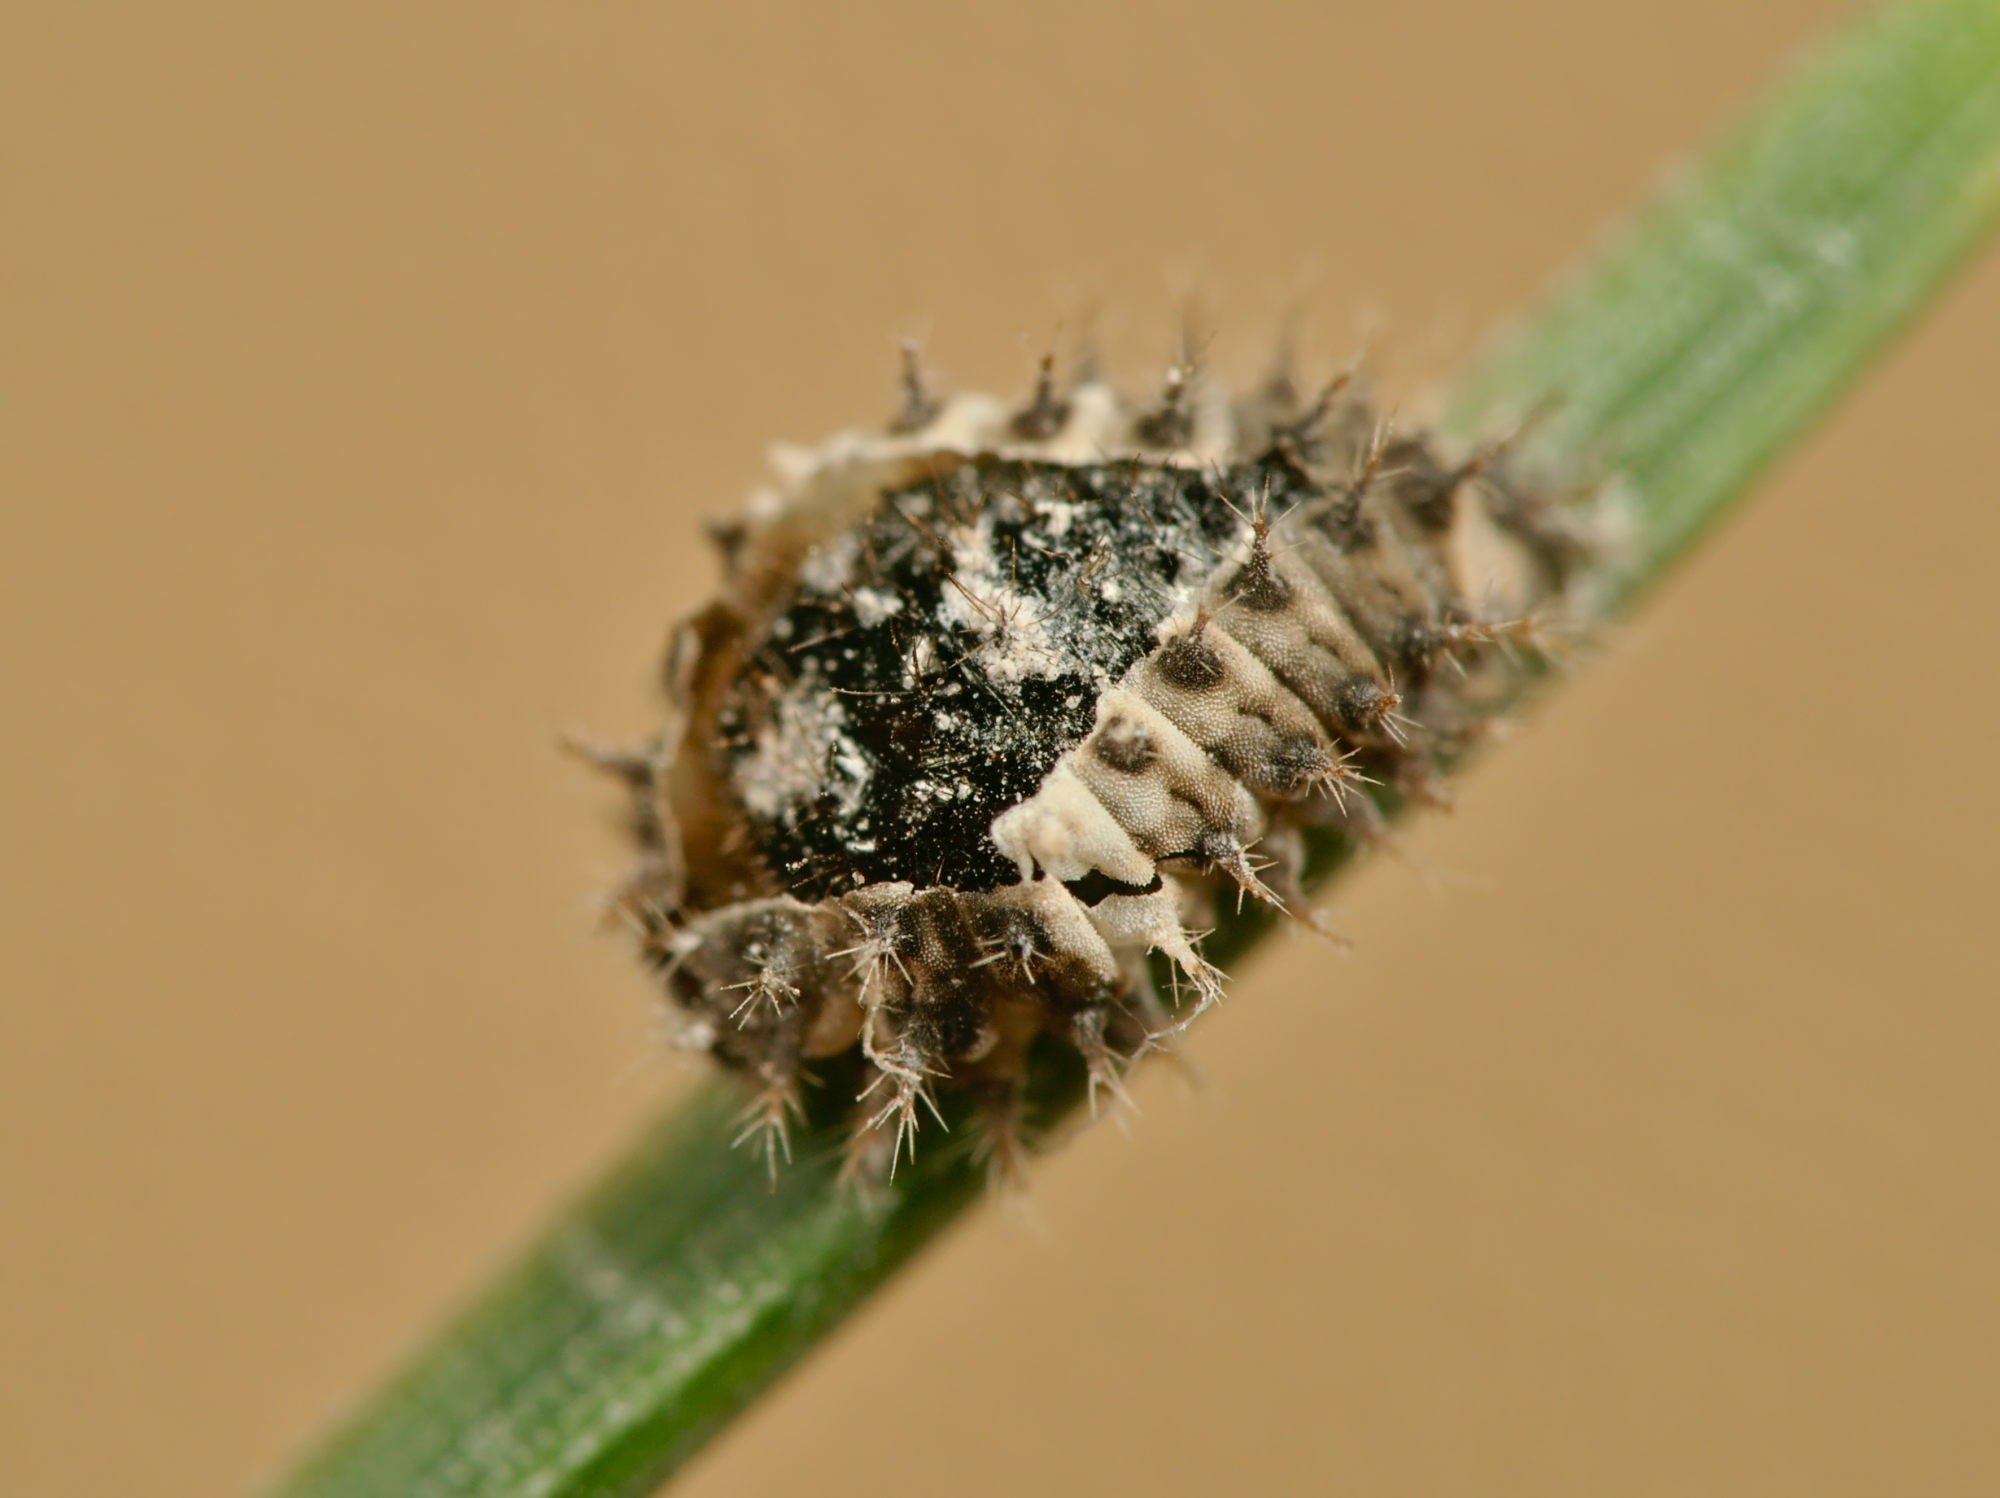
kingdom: Animalia
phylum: Arthropoda
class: Insecta
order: Coleoptera
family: Coccinellidae
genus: Chilocorus
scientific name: Chilocorus bipustulatus
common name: Heather ladybird
